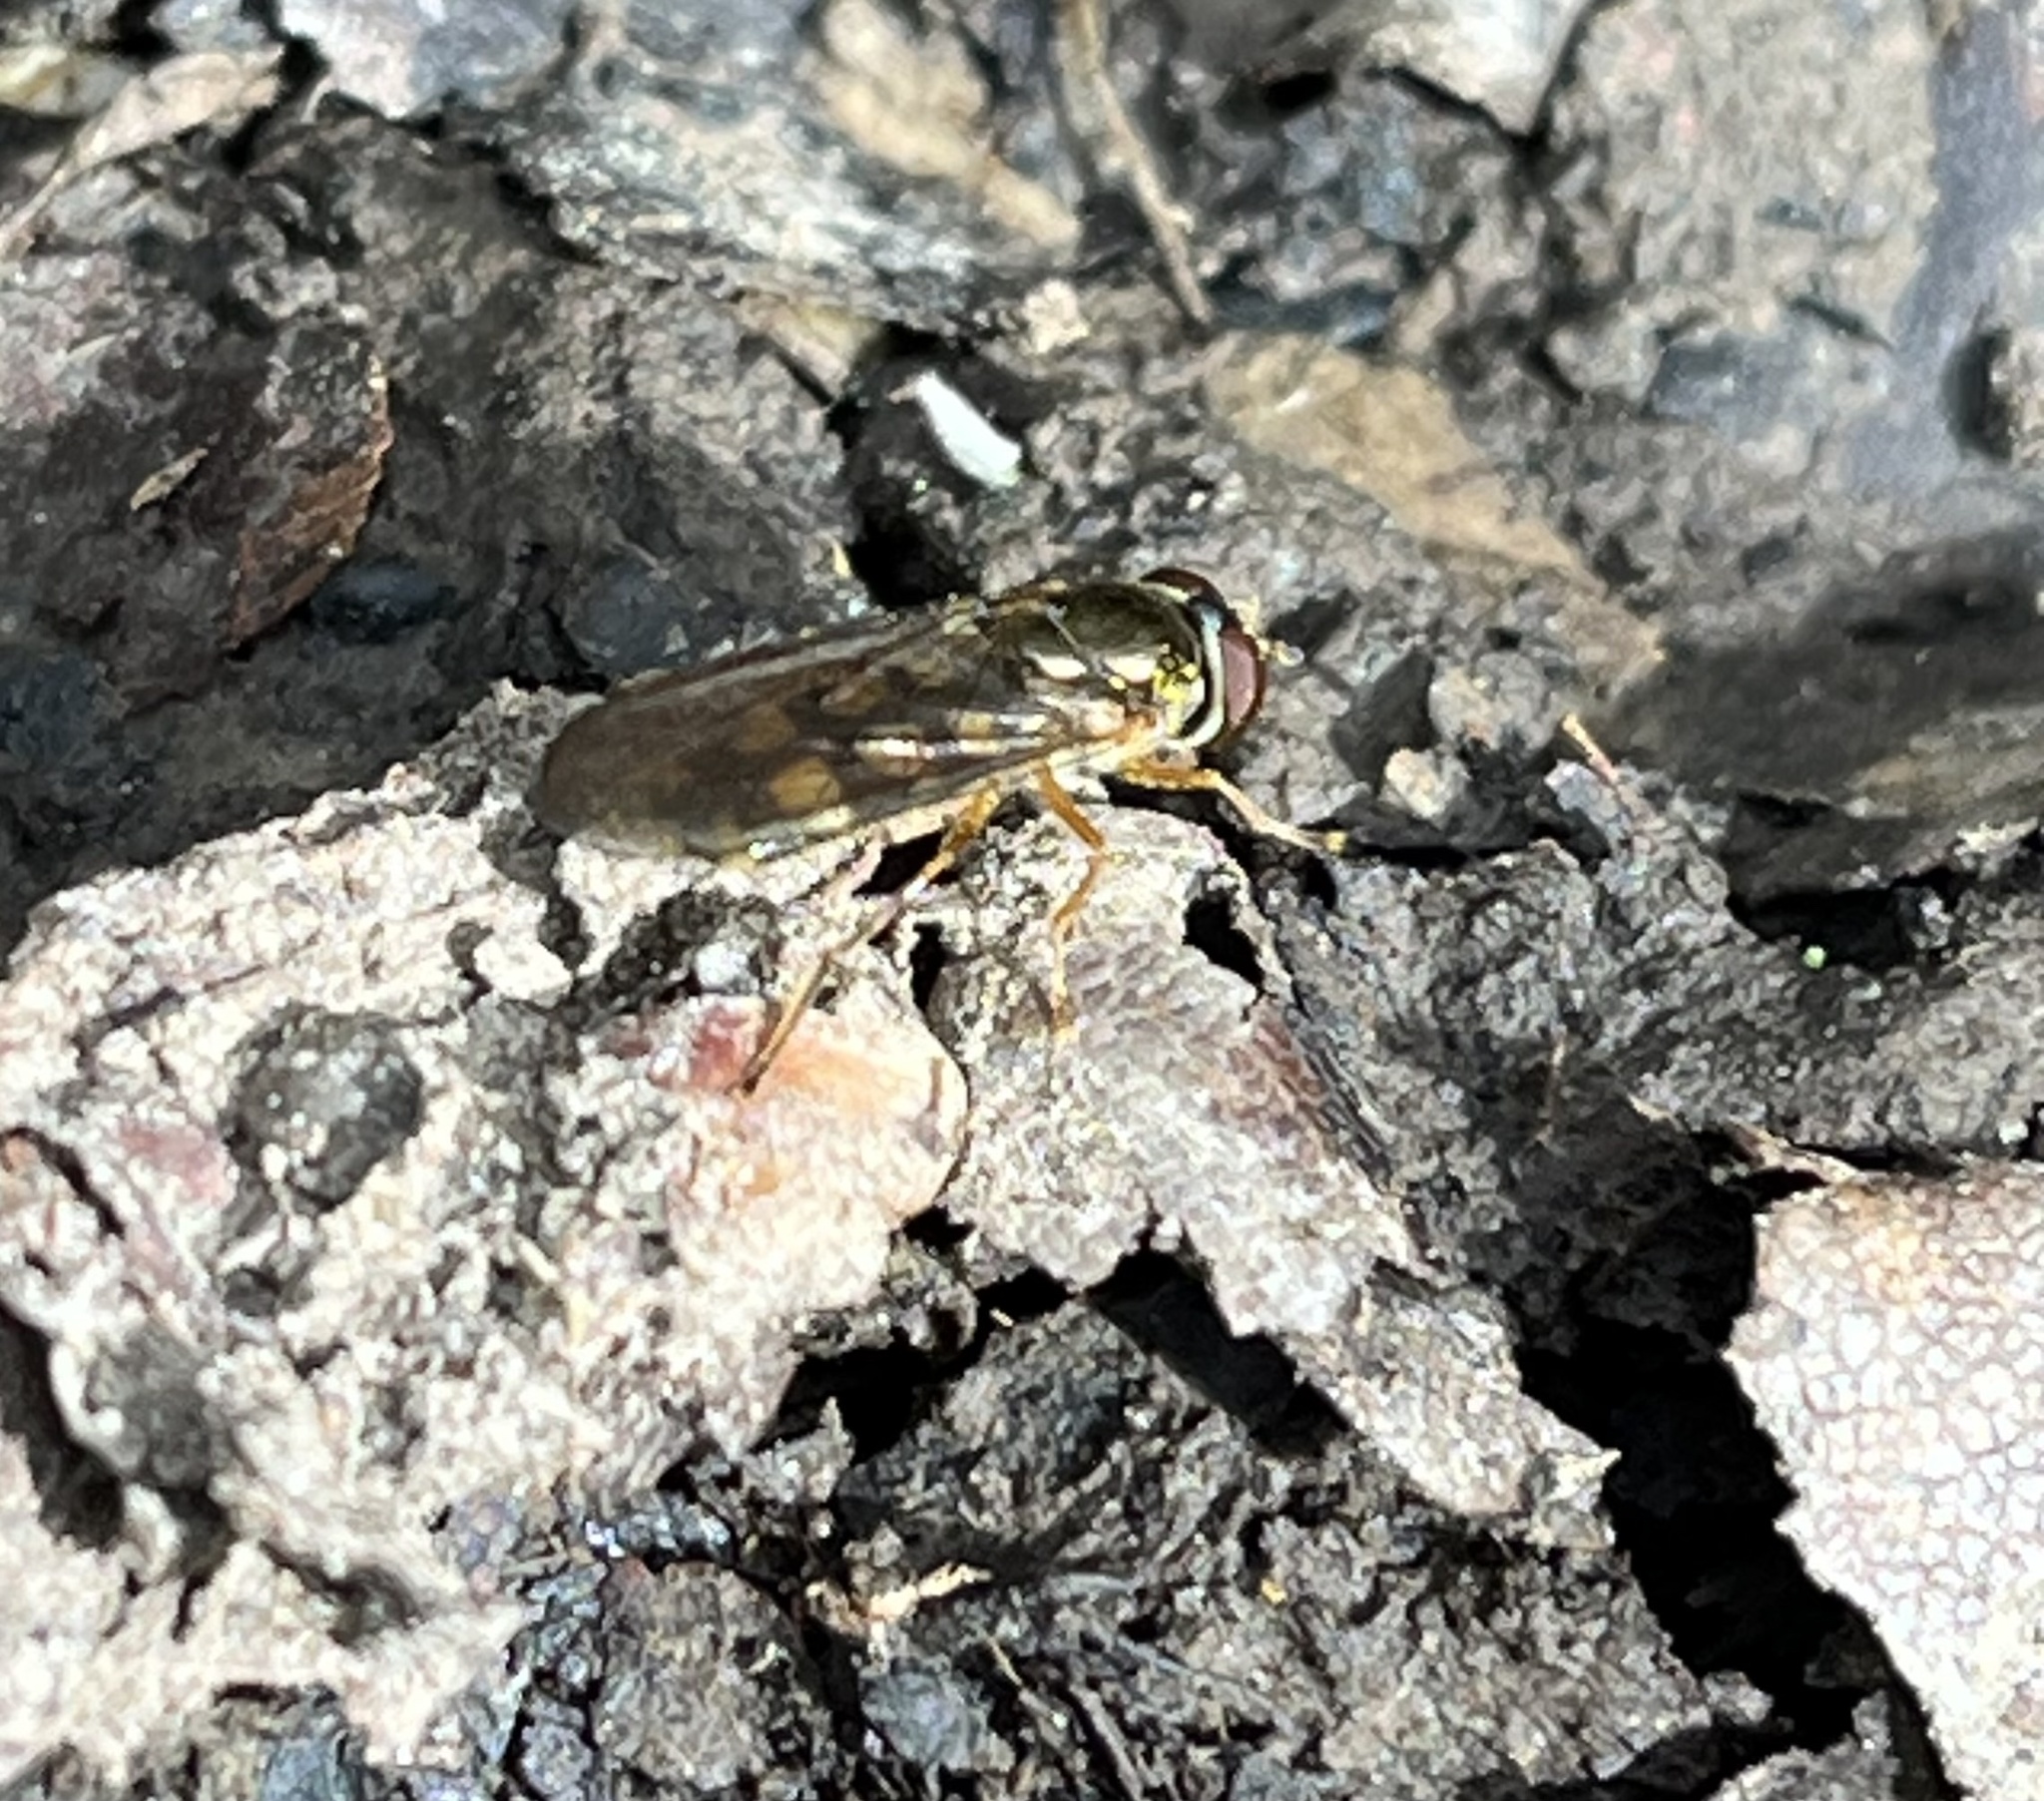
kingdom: Animalia
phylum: Arthropoda
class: Insecta
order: Diptera
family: Syrphidae
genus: Melanostoma
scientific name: Melanostoma
